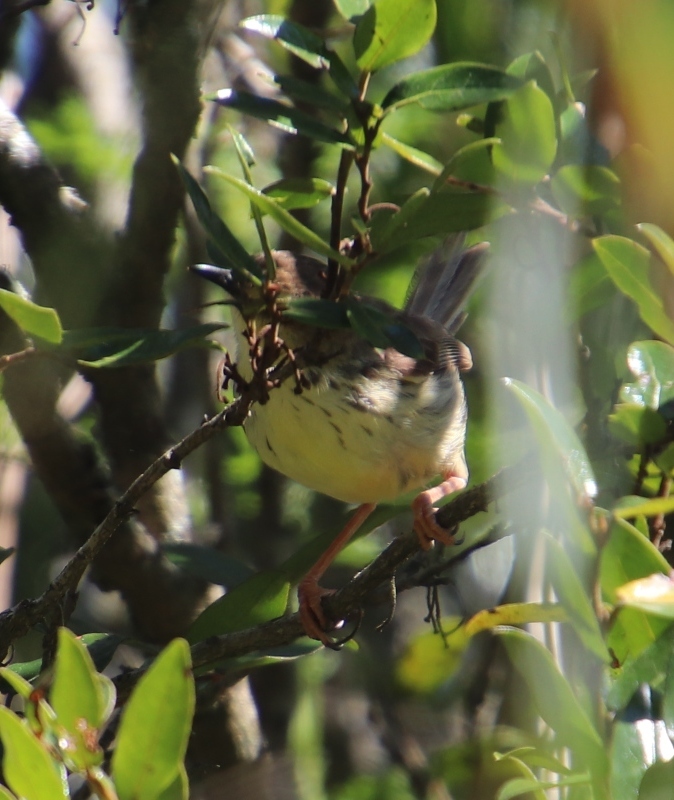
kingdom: Animalia
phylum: Chordata
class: Aves
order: Passeriformes
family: Cisticolidae
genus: Prinia
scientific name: Prinia hypoxantha
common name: Drakensberg prinia
